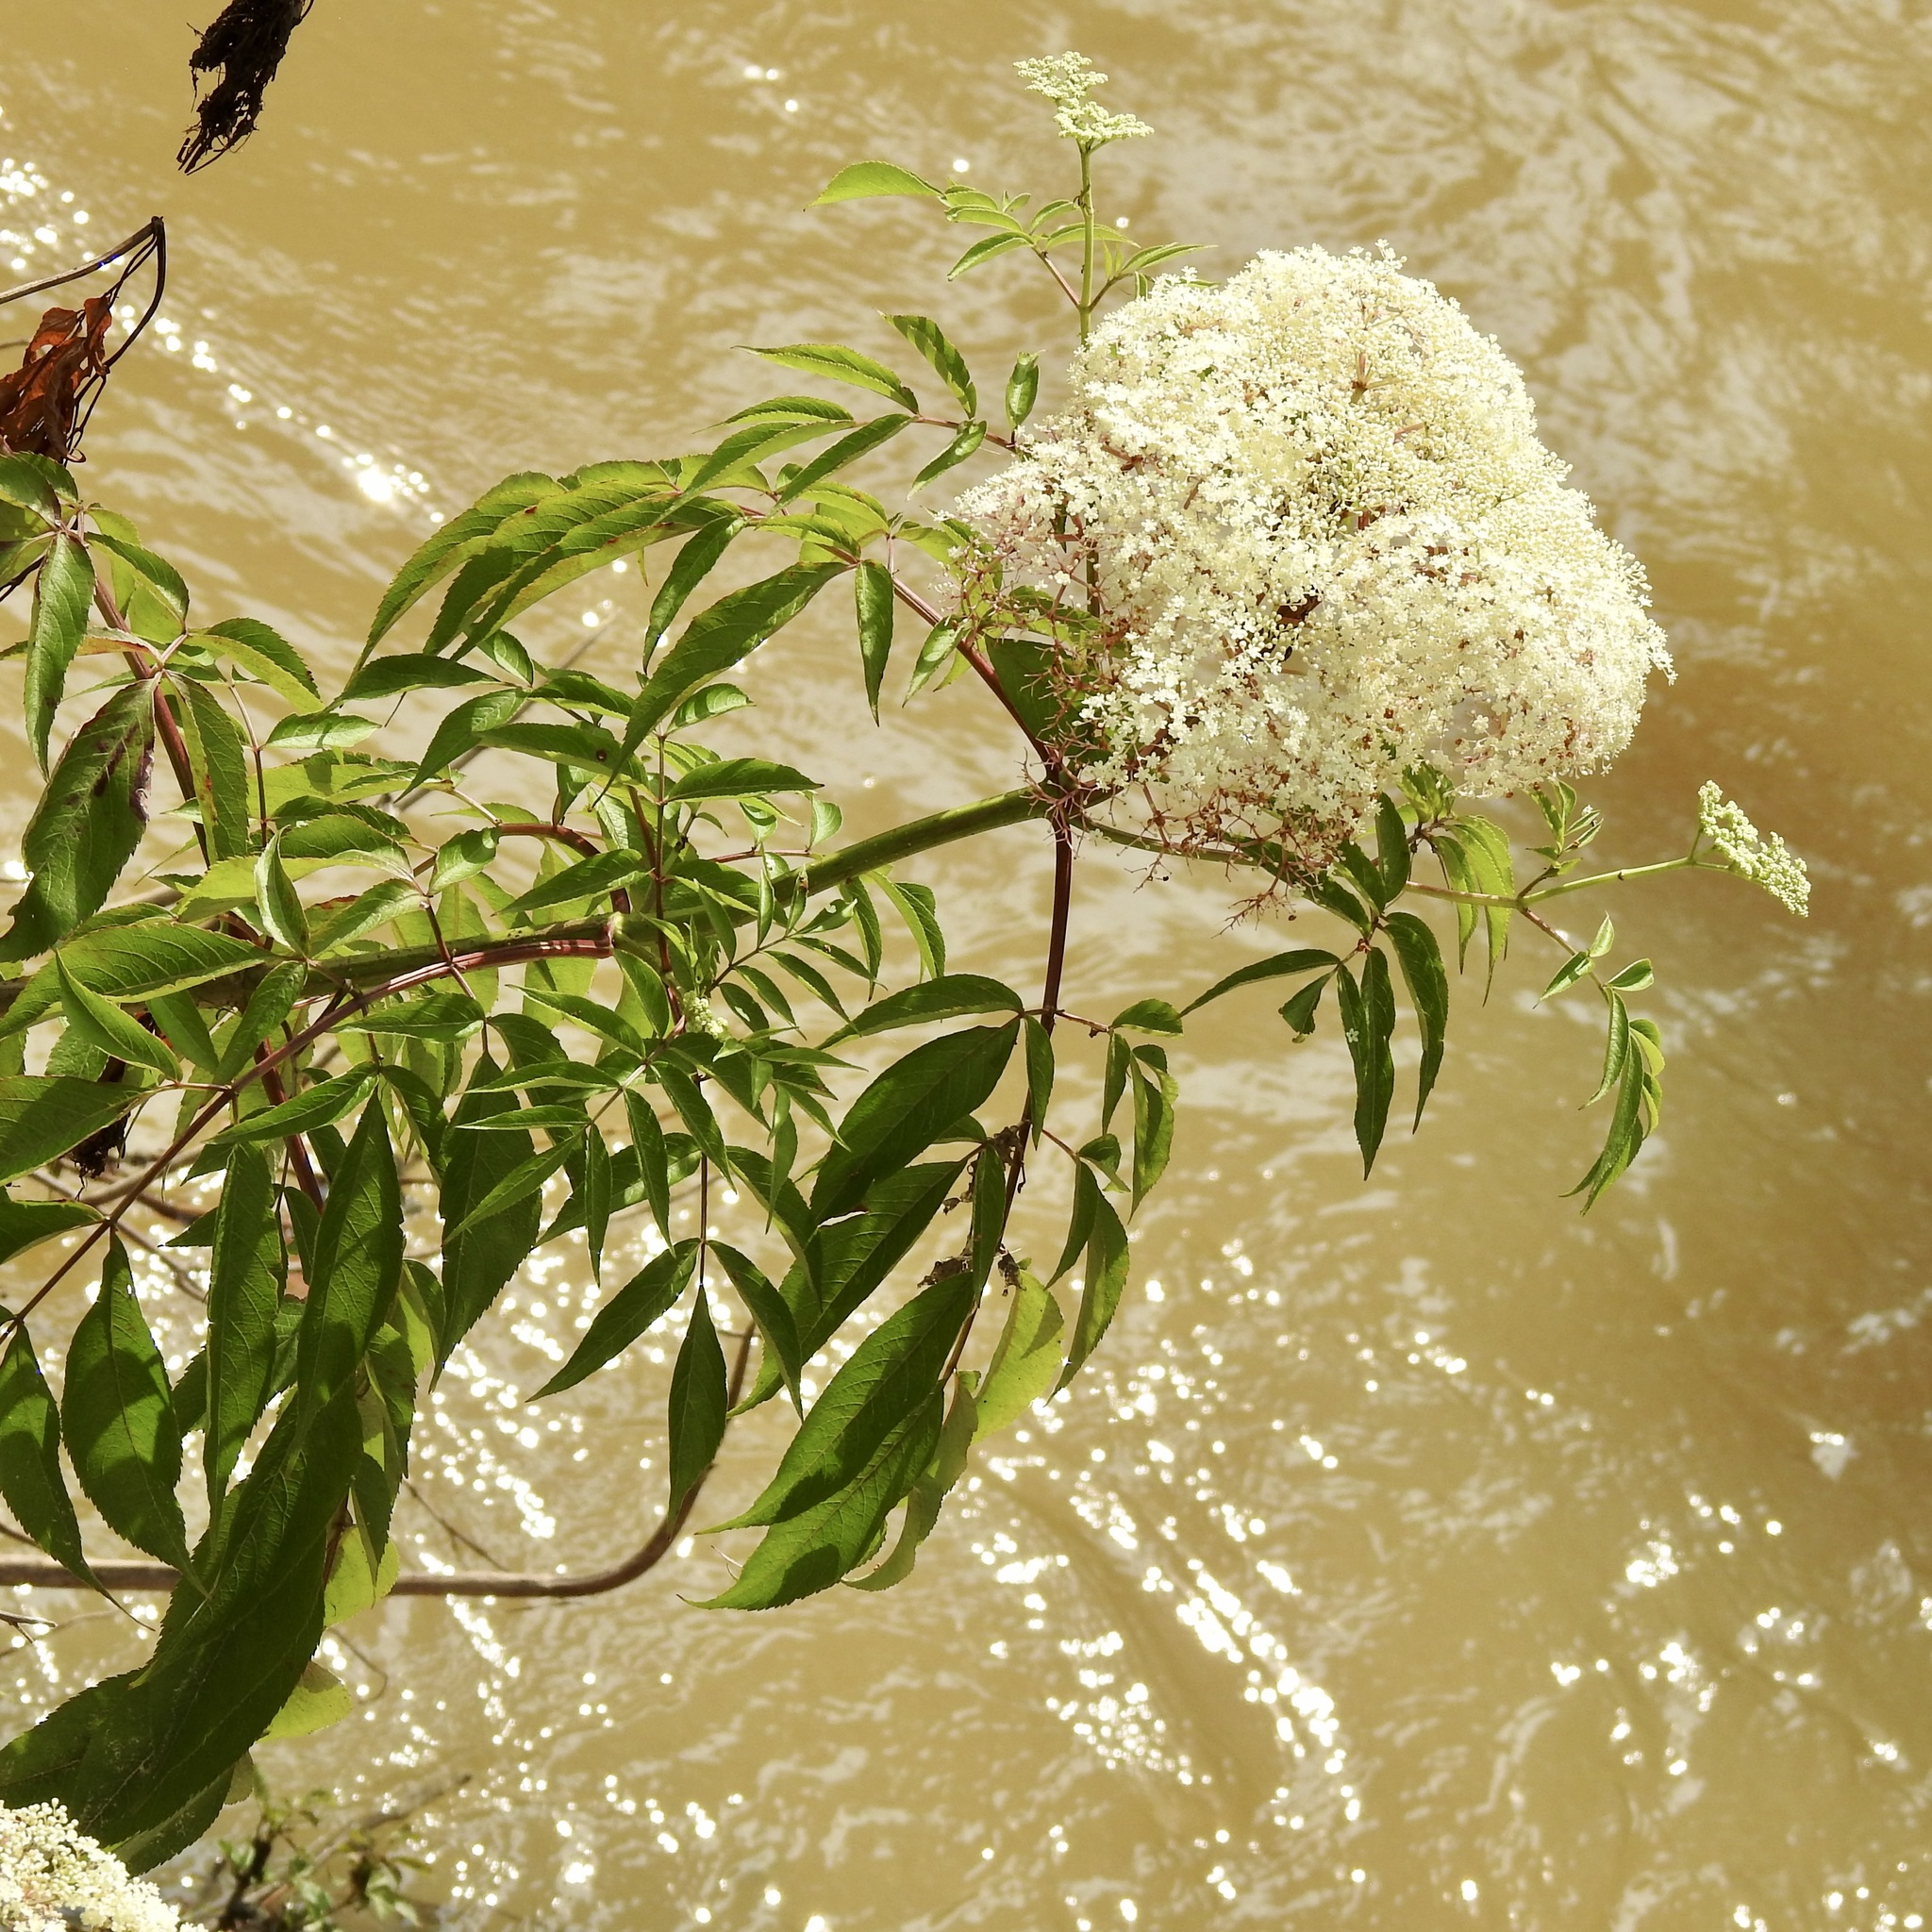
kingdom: Plantae
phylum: Tracheophyta
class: Magnoliopsida
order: Dipsacales
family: Viburnaceae
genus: Sambucus
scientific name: Sambucus canadensis
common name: American elder
